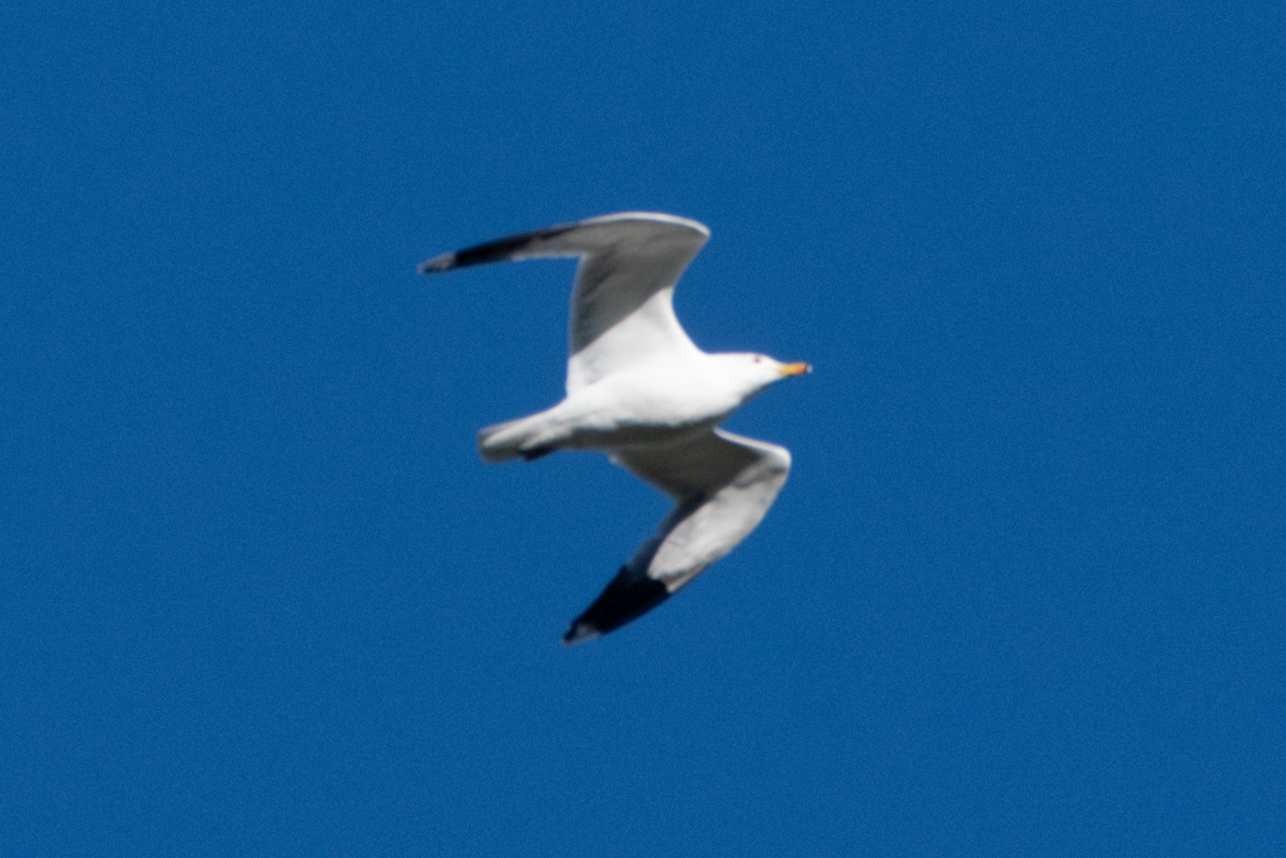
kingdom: Animalia
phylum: Chordata
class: Aves
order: Charadriiformes
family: Laridae
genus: Larus
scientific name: Larus californicus
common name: California gull
